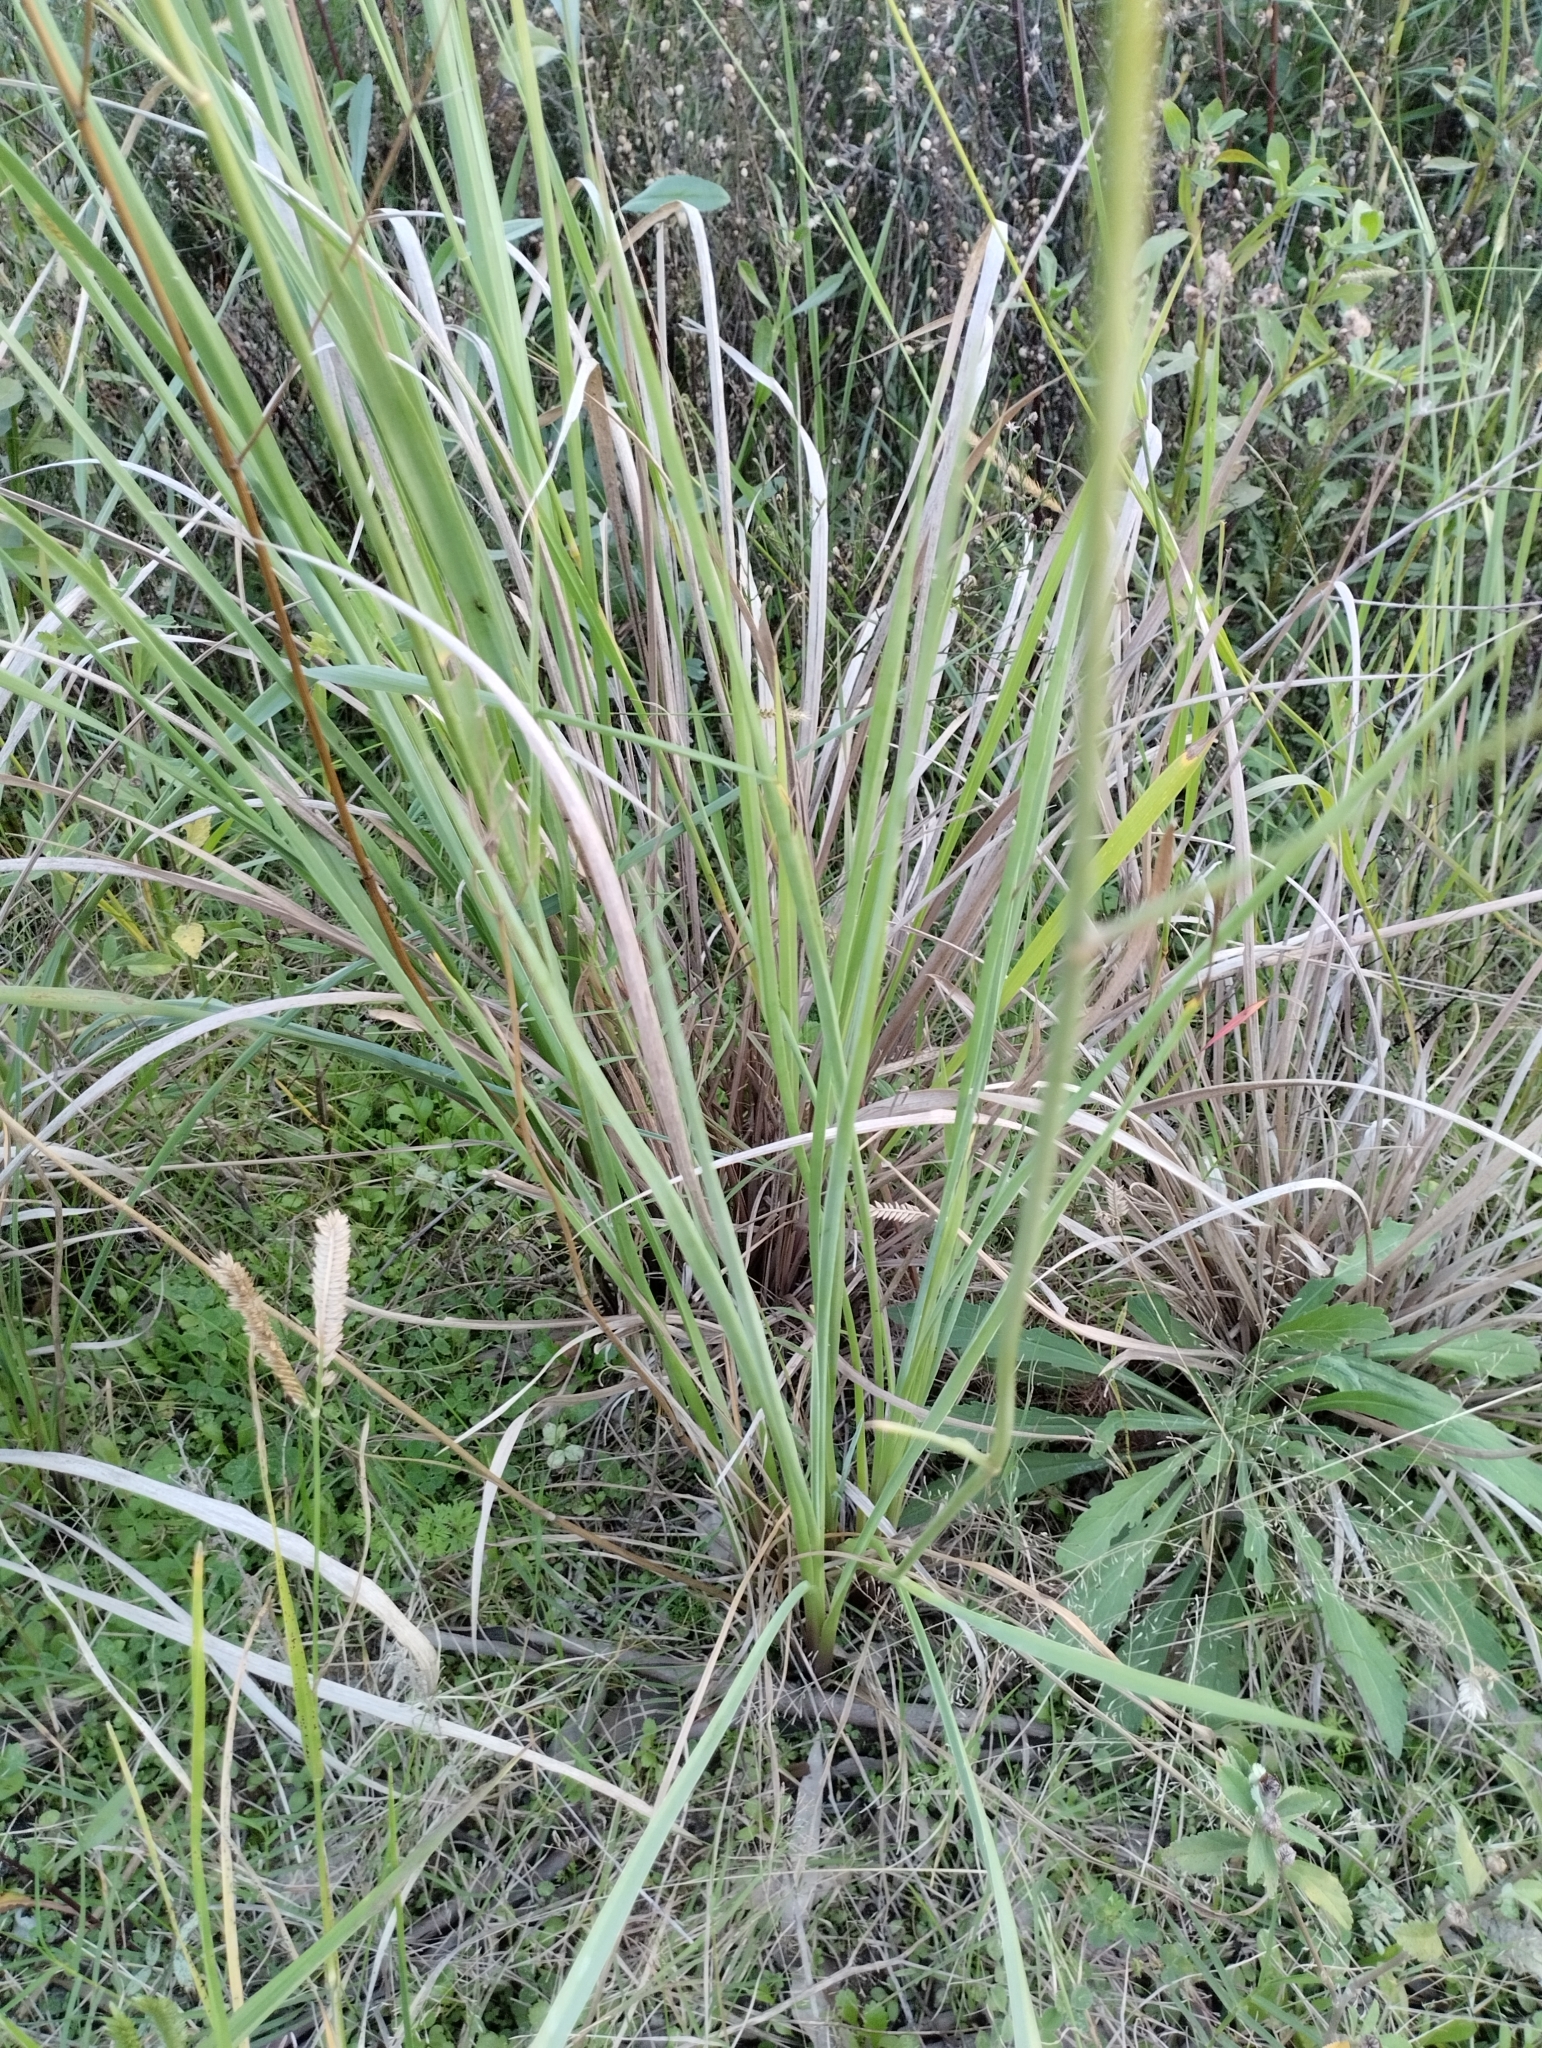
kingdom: Plantae
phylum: Tracheophyta
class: Magnoliopsida
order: Apiales
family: Apiaceae
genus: Eryngium
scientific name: Eryngium ebracteatum
